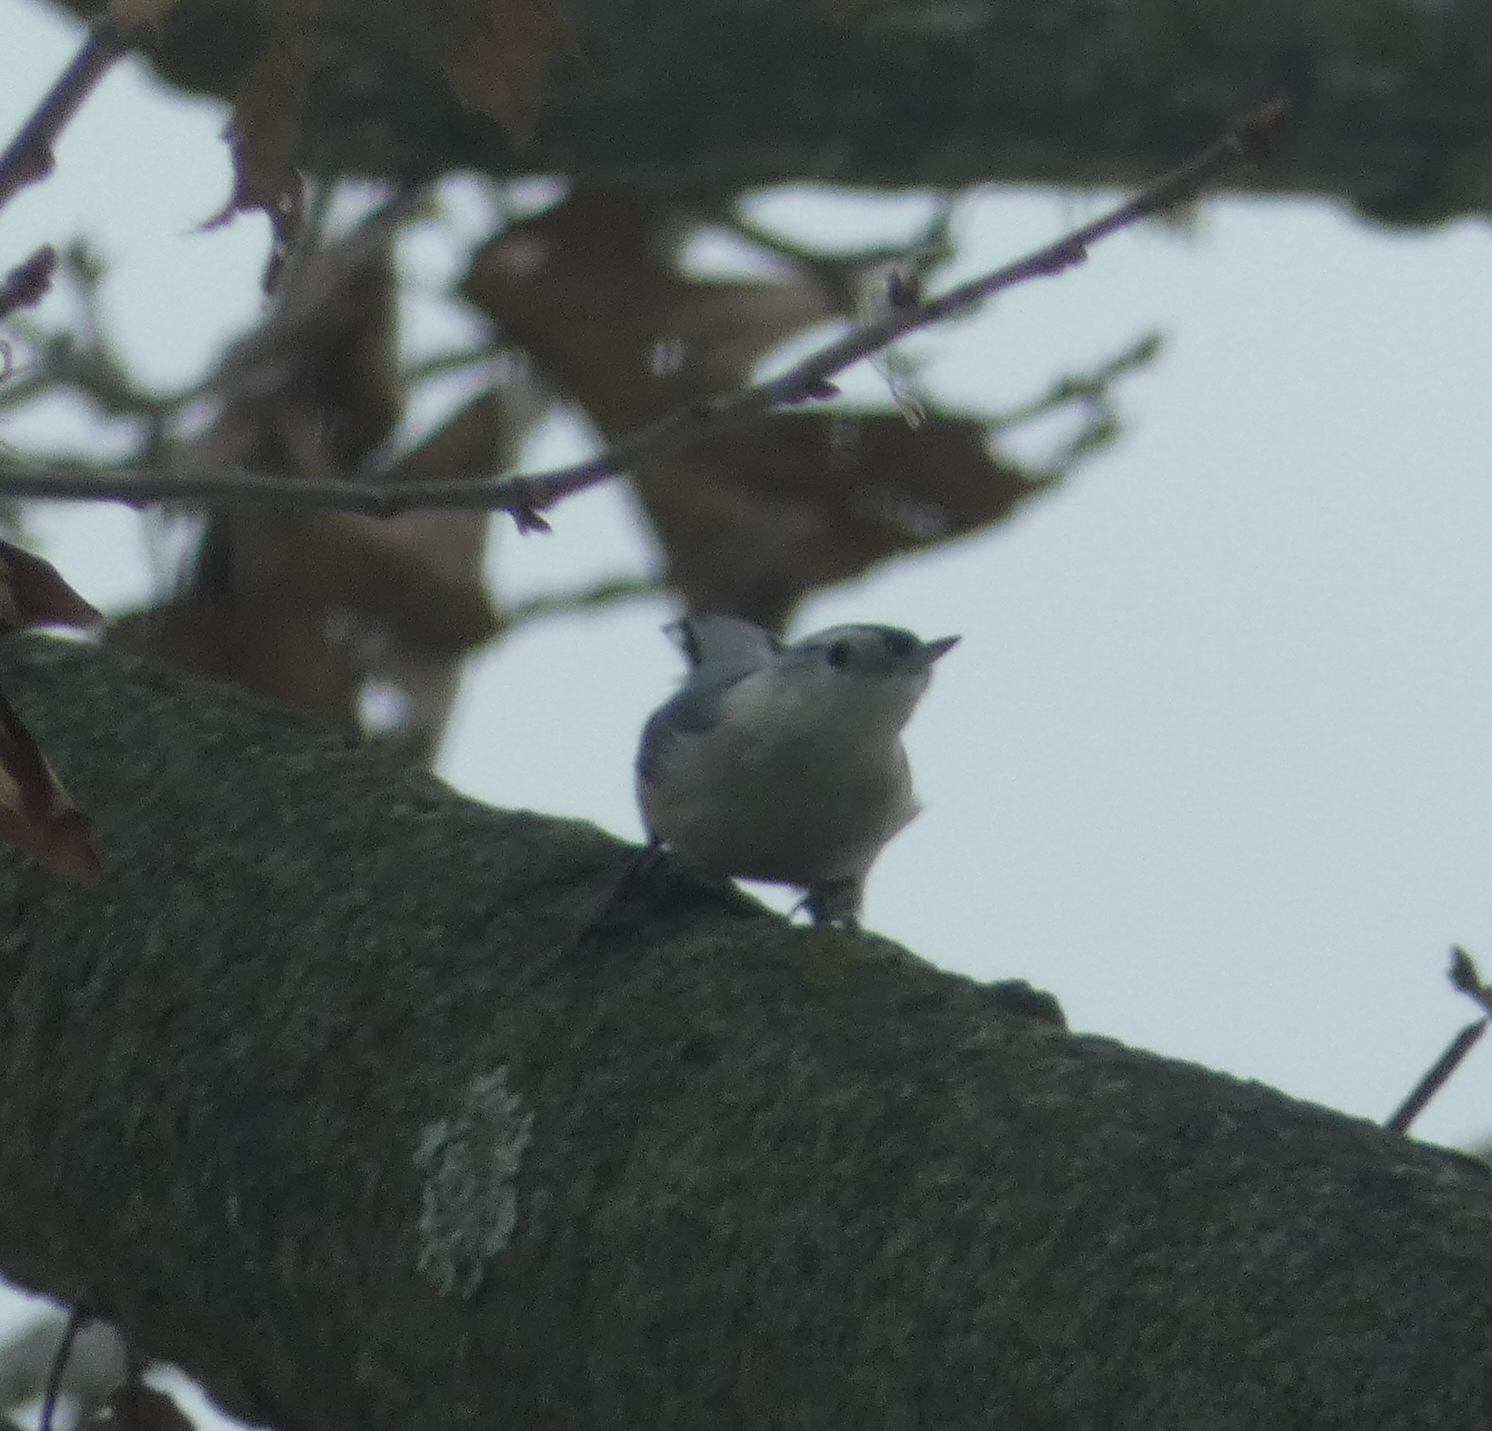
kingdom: Animalia
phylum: Chordata
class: Aves
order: Passeriformes
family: Sittidae
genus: Sitta
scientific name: Sitta carolinensis
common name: White-breasted nuthatch
